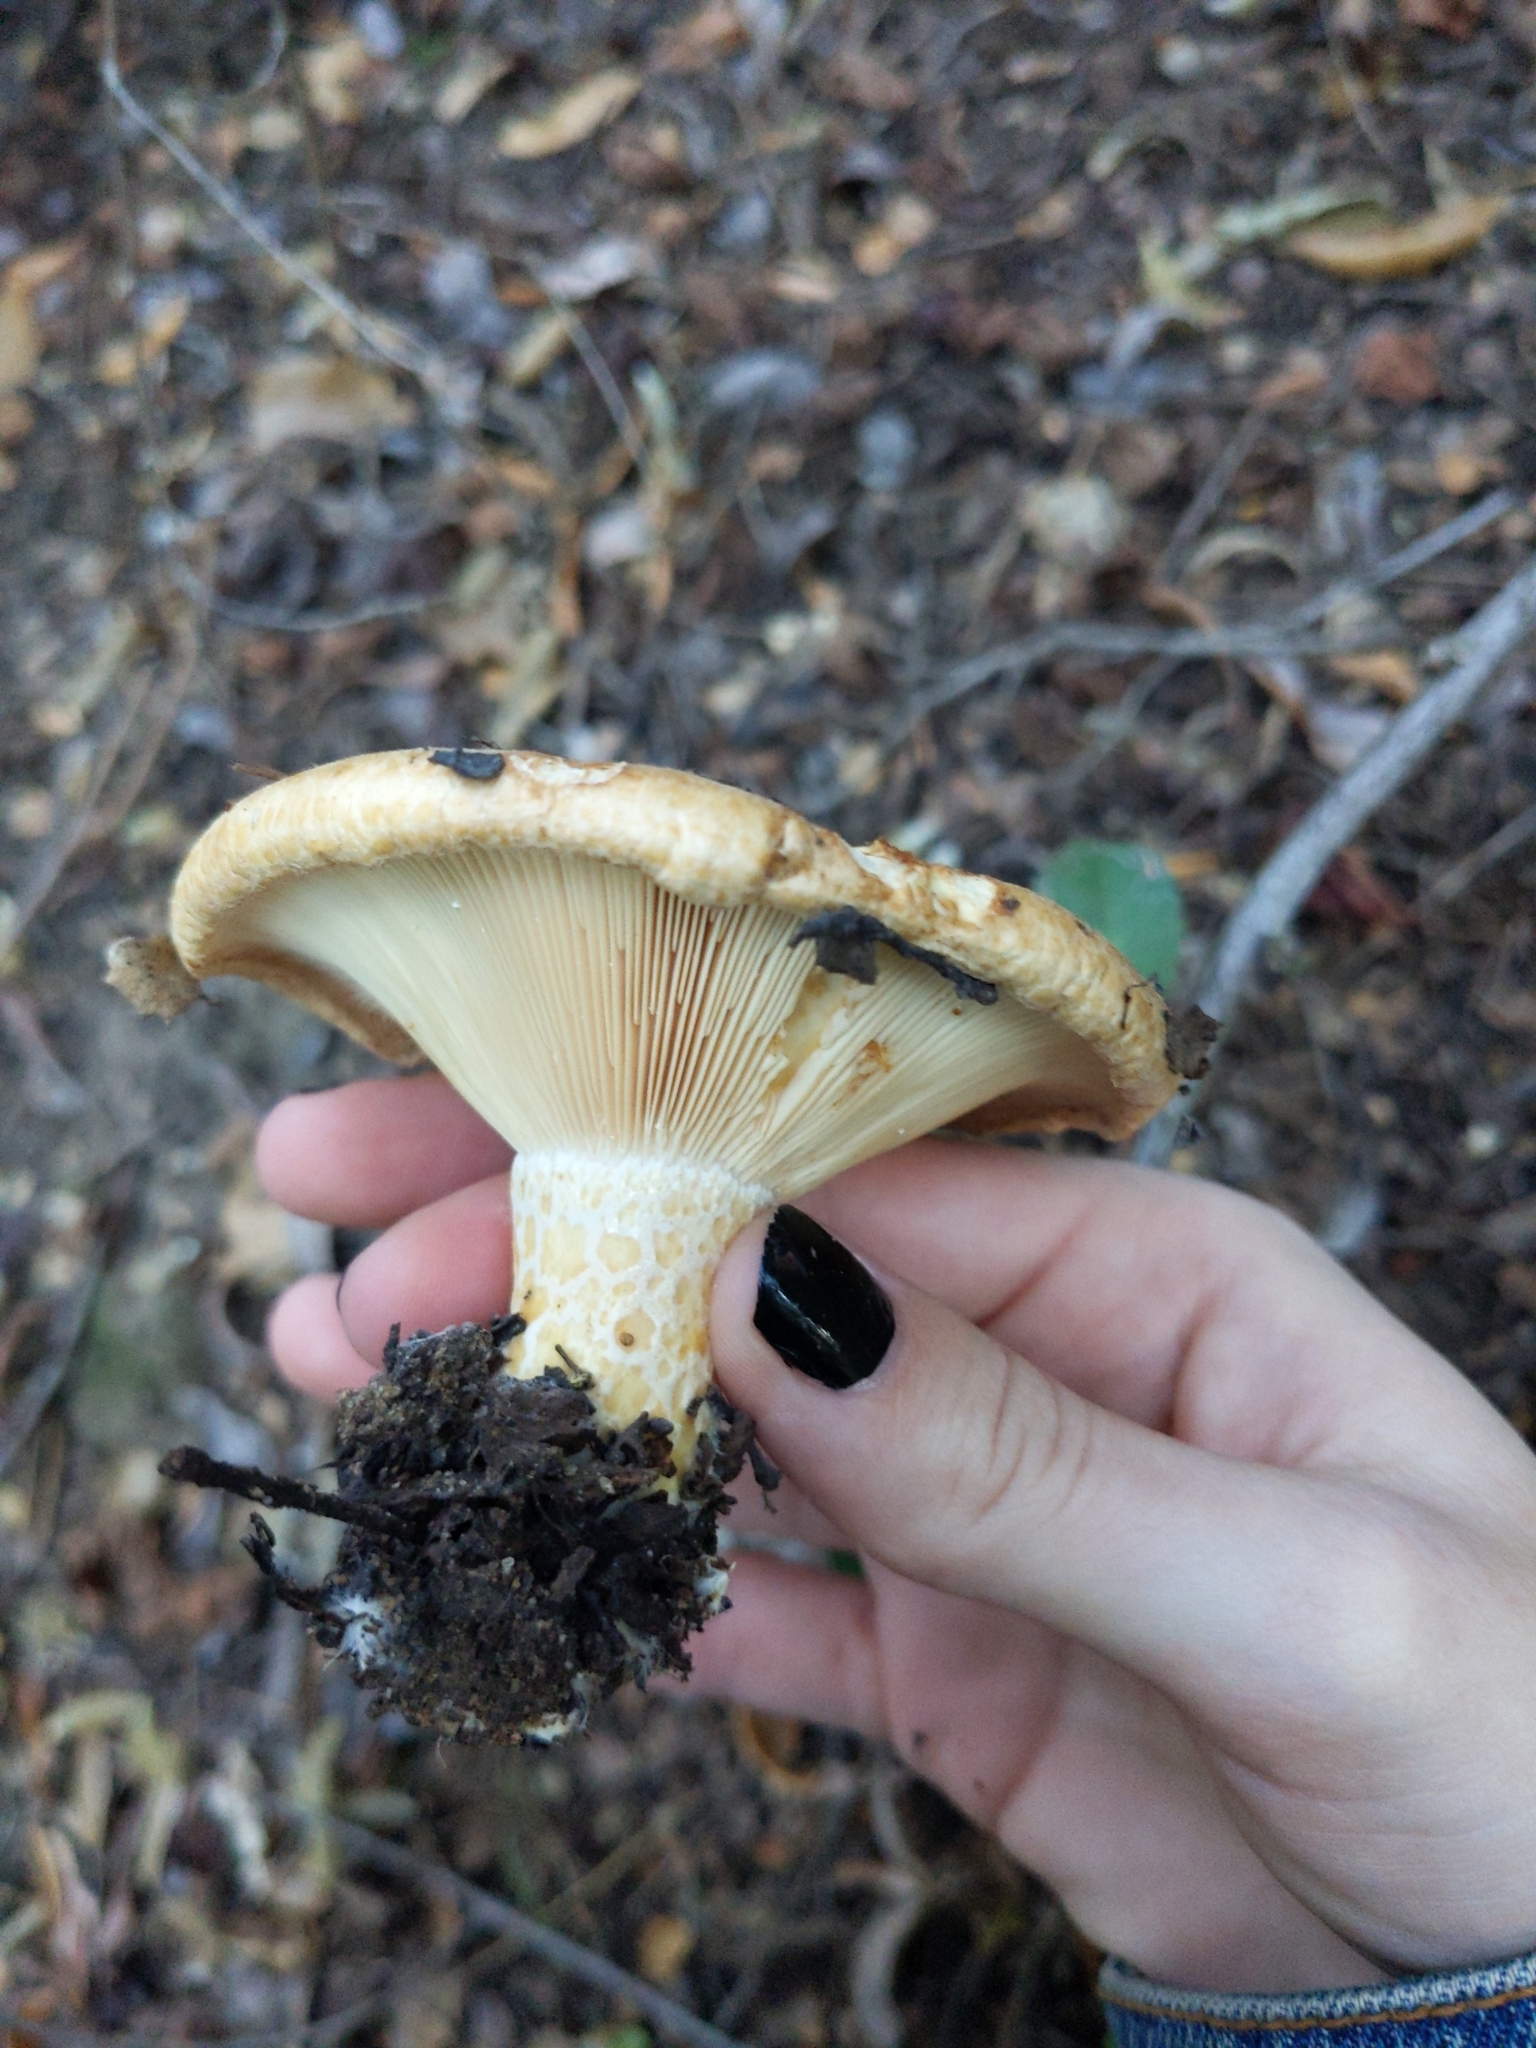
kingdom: Fungi
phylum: Basidiomycota
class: Agaricomycetes
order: Russulales
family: Russulaceae
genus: Lactarius
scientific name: Lactarius alnicola
